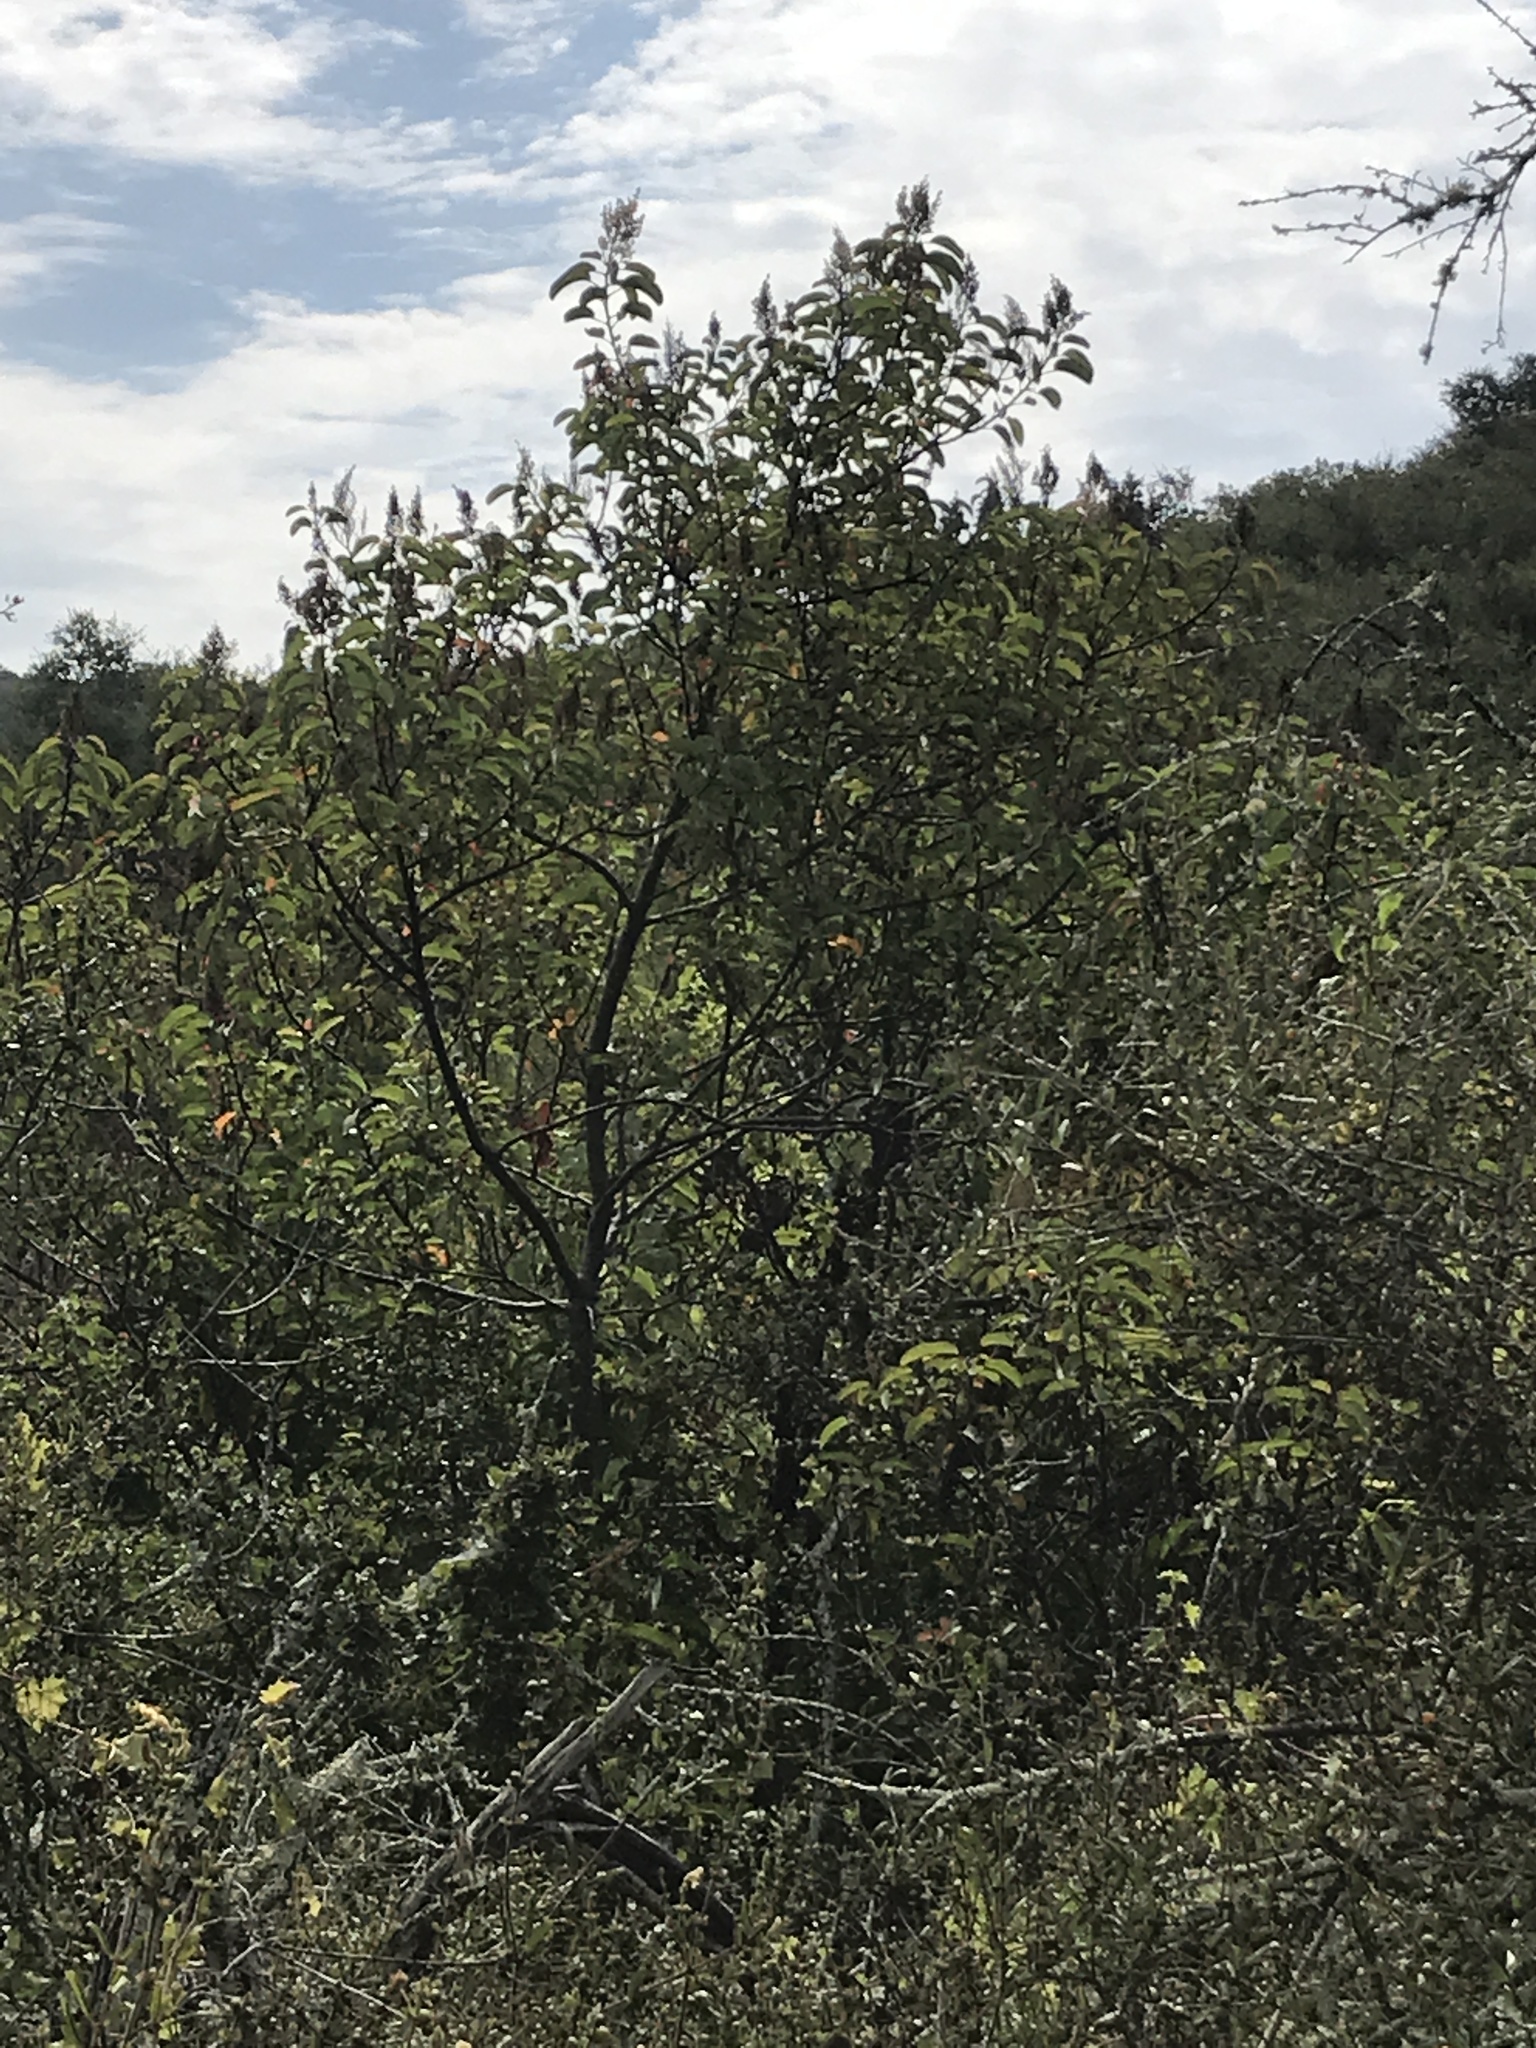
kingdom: Plantae
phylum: Tracheophyta
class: Magnoliopsida
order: Sapindales
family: Anacardiaceae
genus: Malosma
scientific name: Malosma laurina
